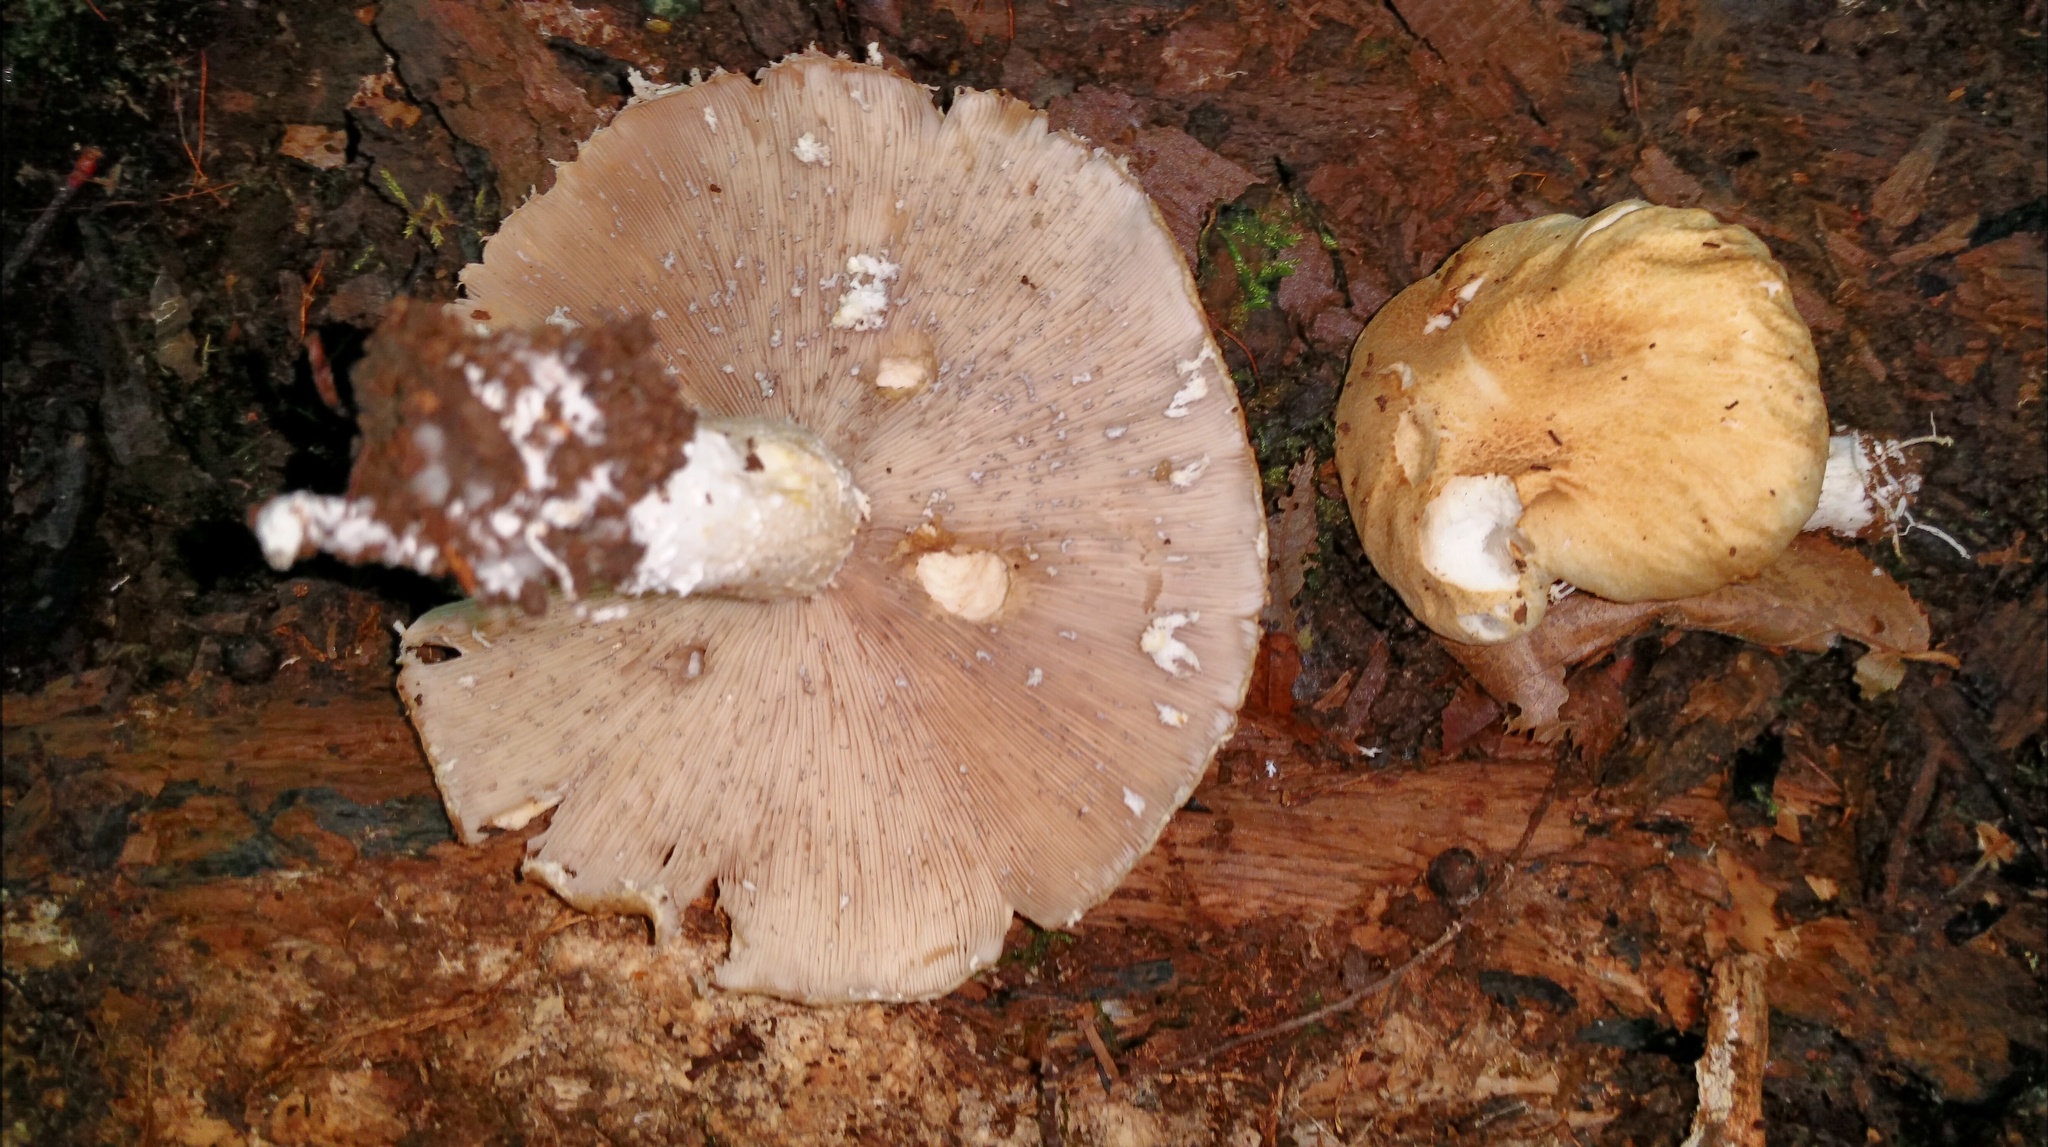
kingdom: Fungi
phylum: Basidiomycota
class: Agaricomycetes
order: Agaricales
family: Strophariaceae
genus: Stropharia
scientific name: Stropharia hardii
